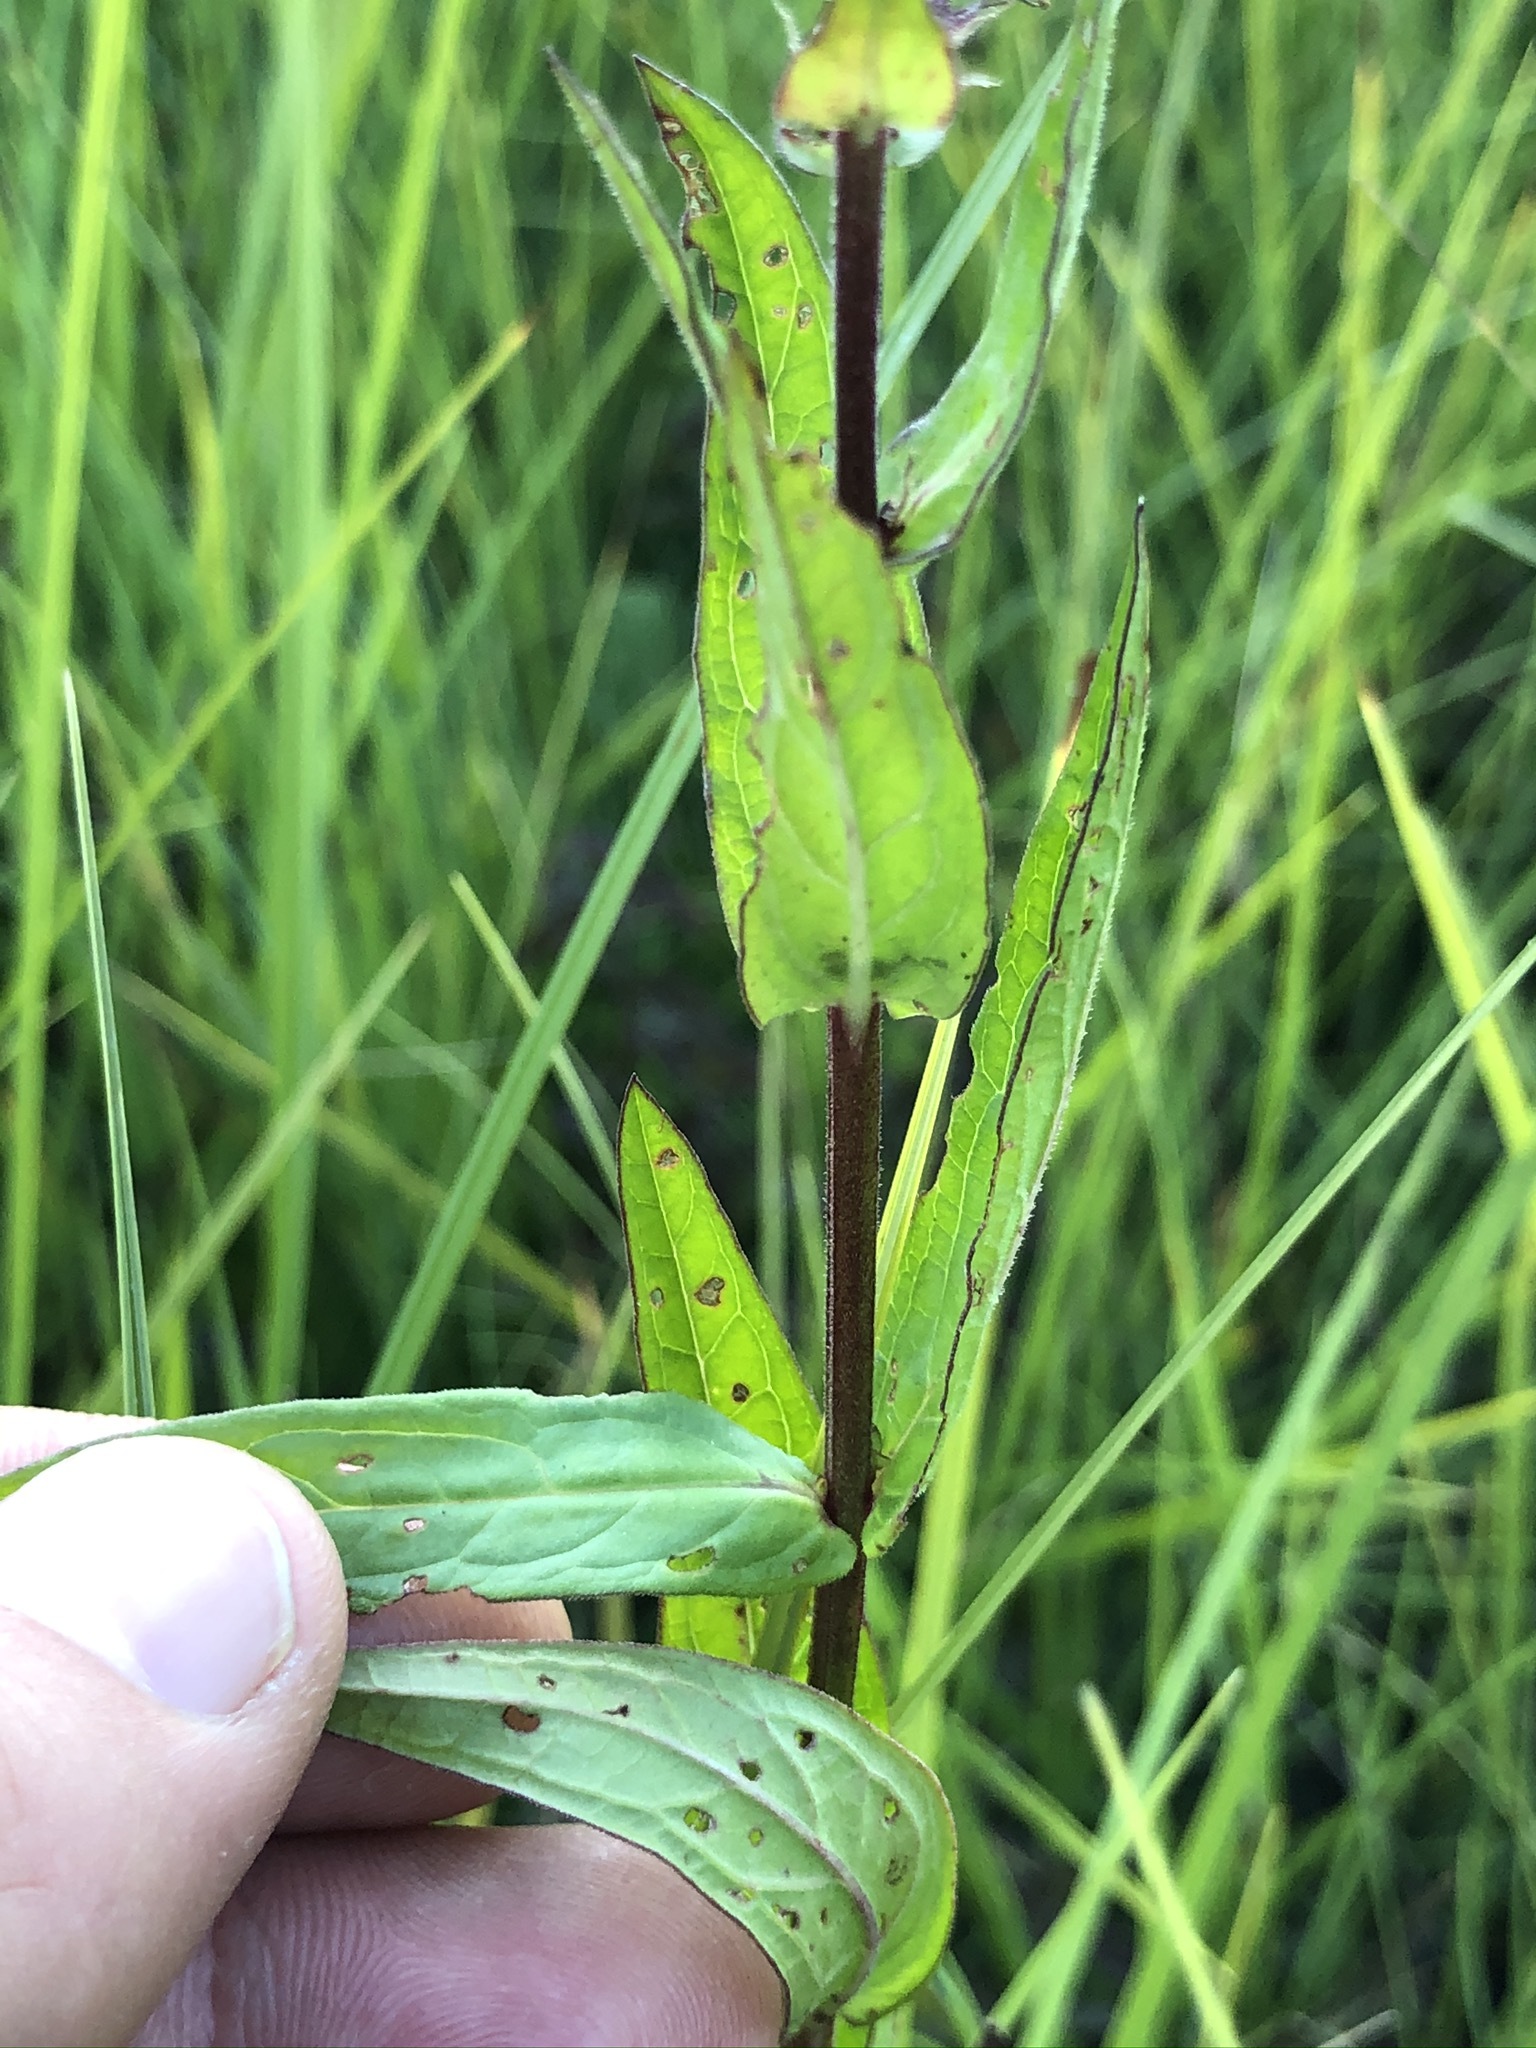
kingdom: Plantae
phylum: Tracheophyta
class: Magnoliopsida
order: Myrtales
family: Lythraceae
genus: Lythrum
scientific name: Lythrum salicaria
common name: Purple loosestrife
